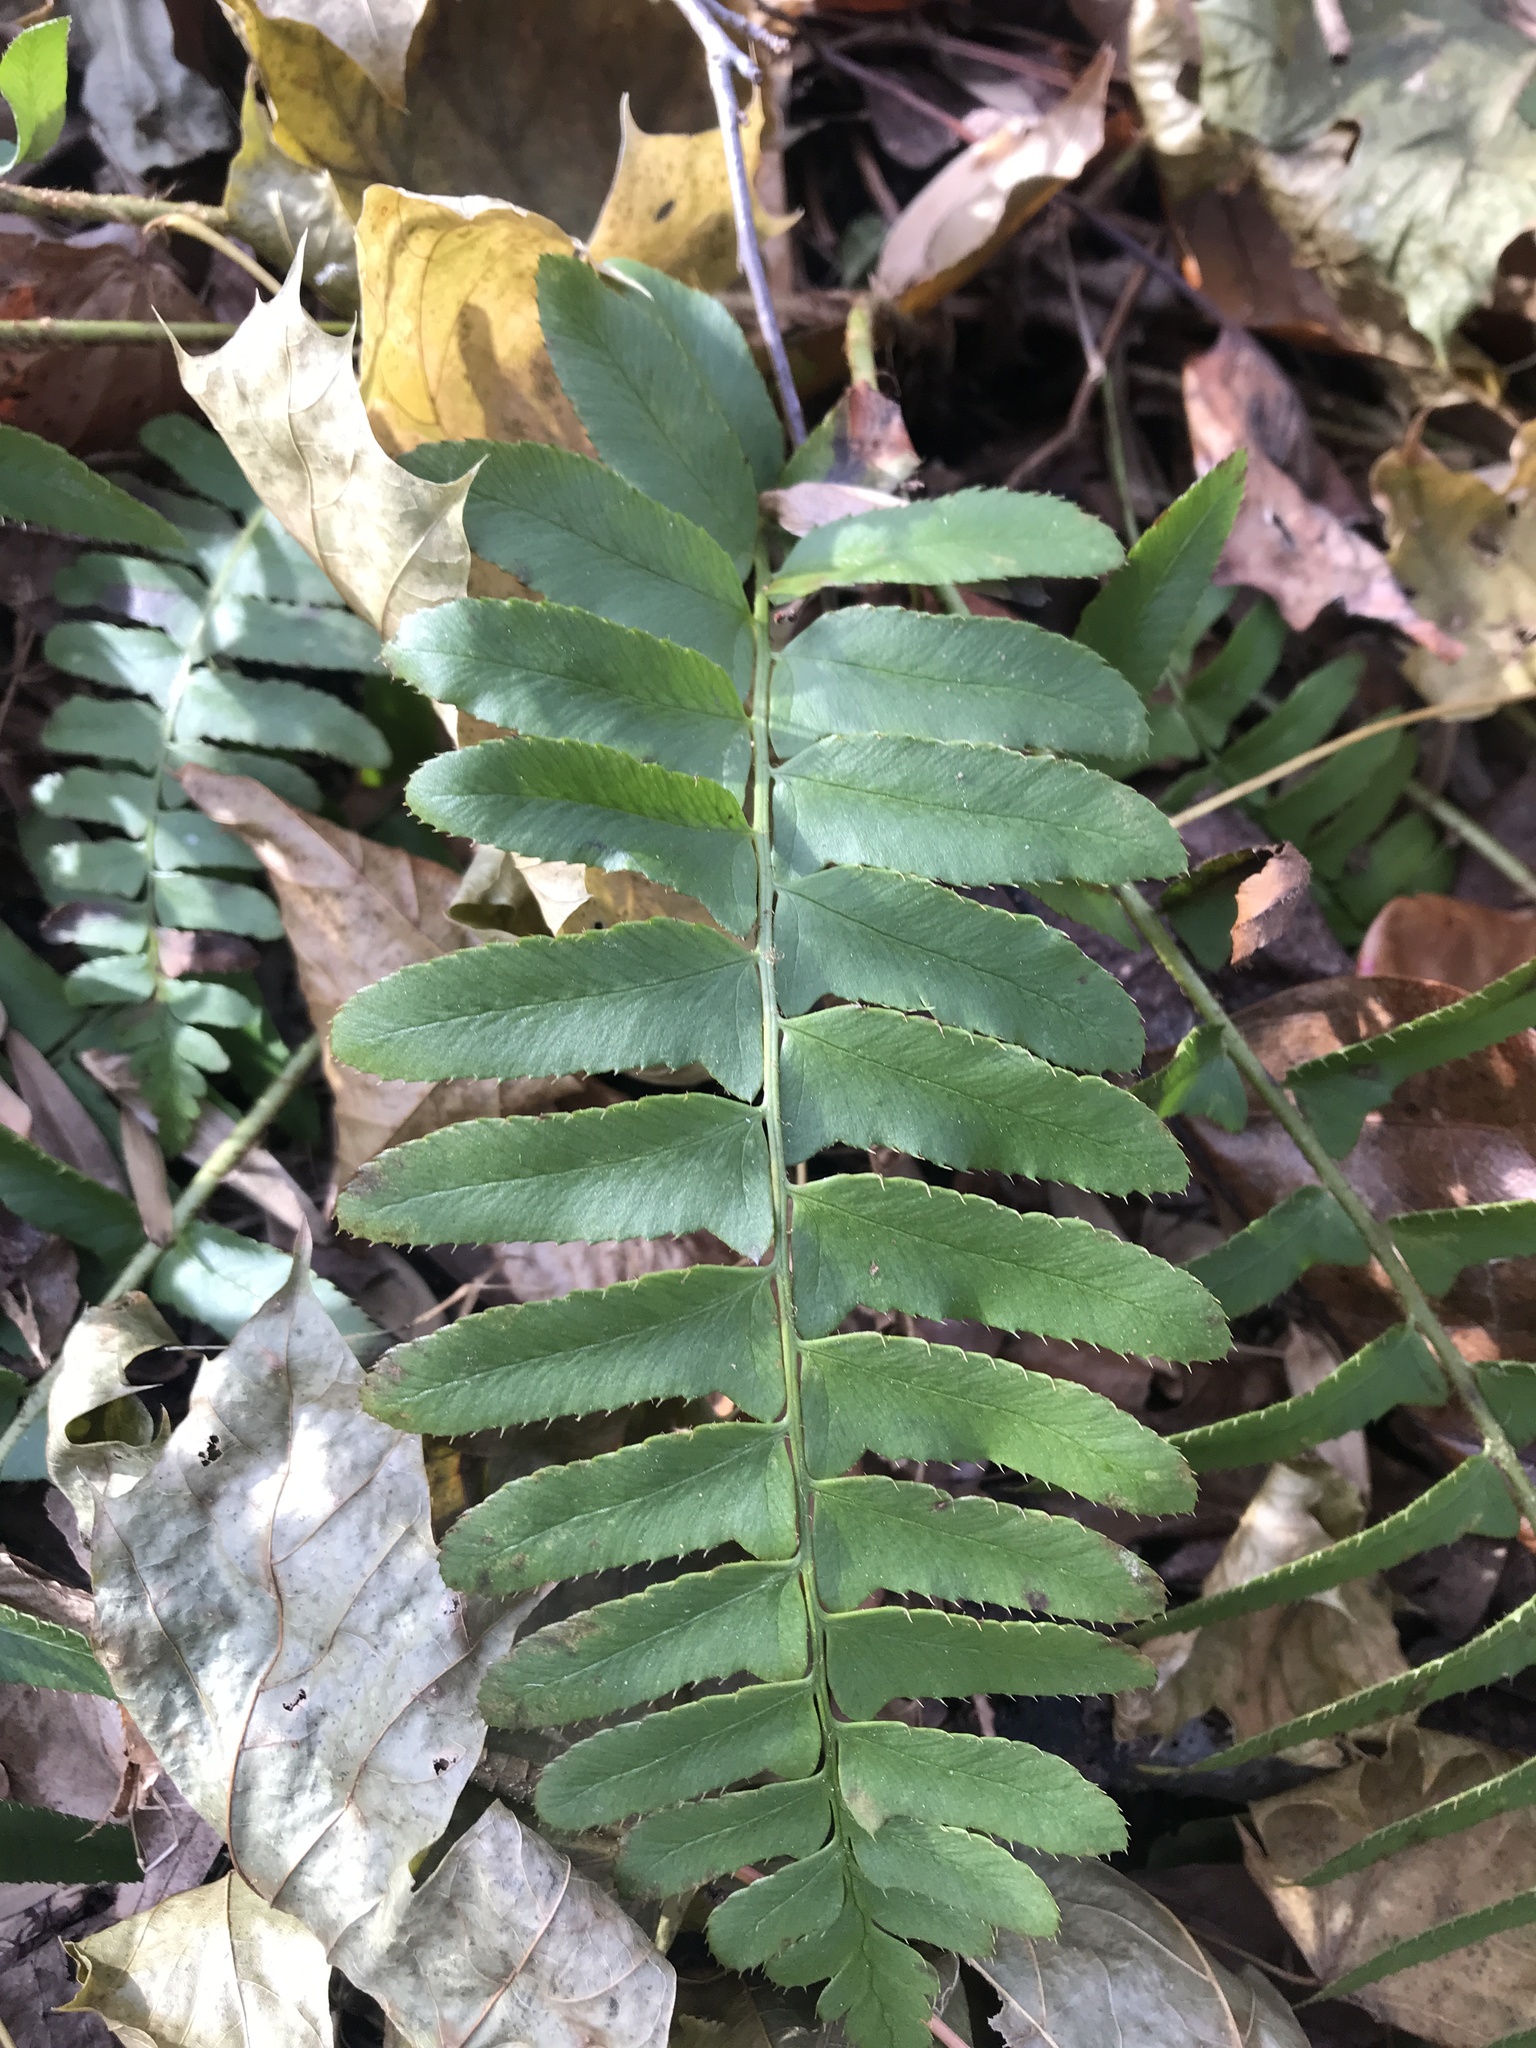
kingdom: Plantae
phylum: Tracheophyta
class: Polypodiopsida
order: Polypodiales
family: Dryopteridaceae
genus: Polystichum
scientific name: Polystichum acrostichoides
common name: Christmas fern
